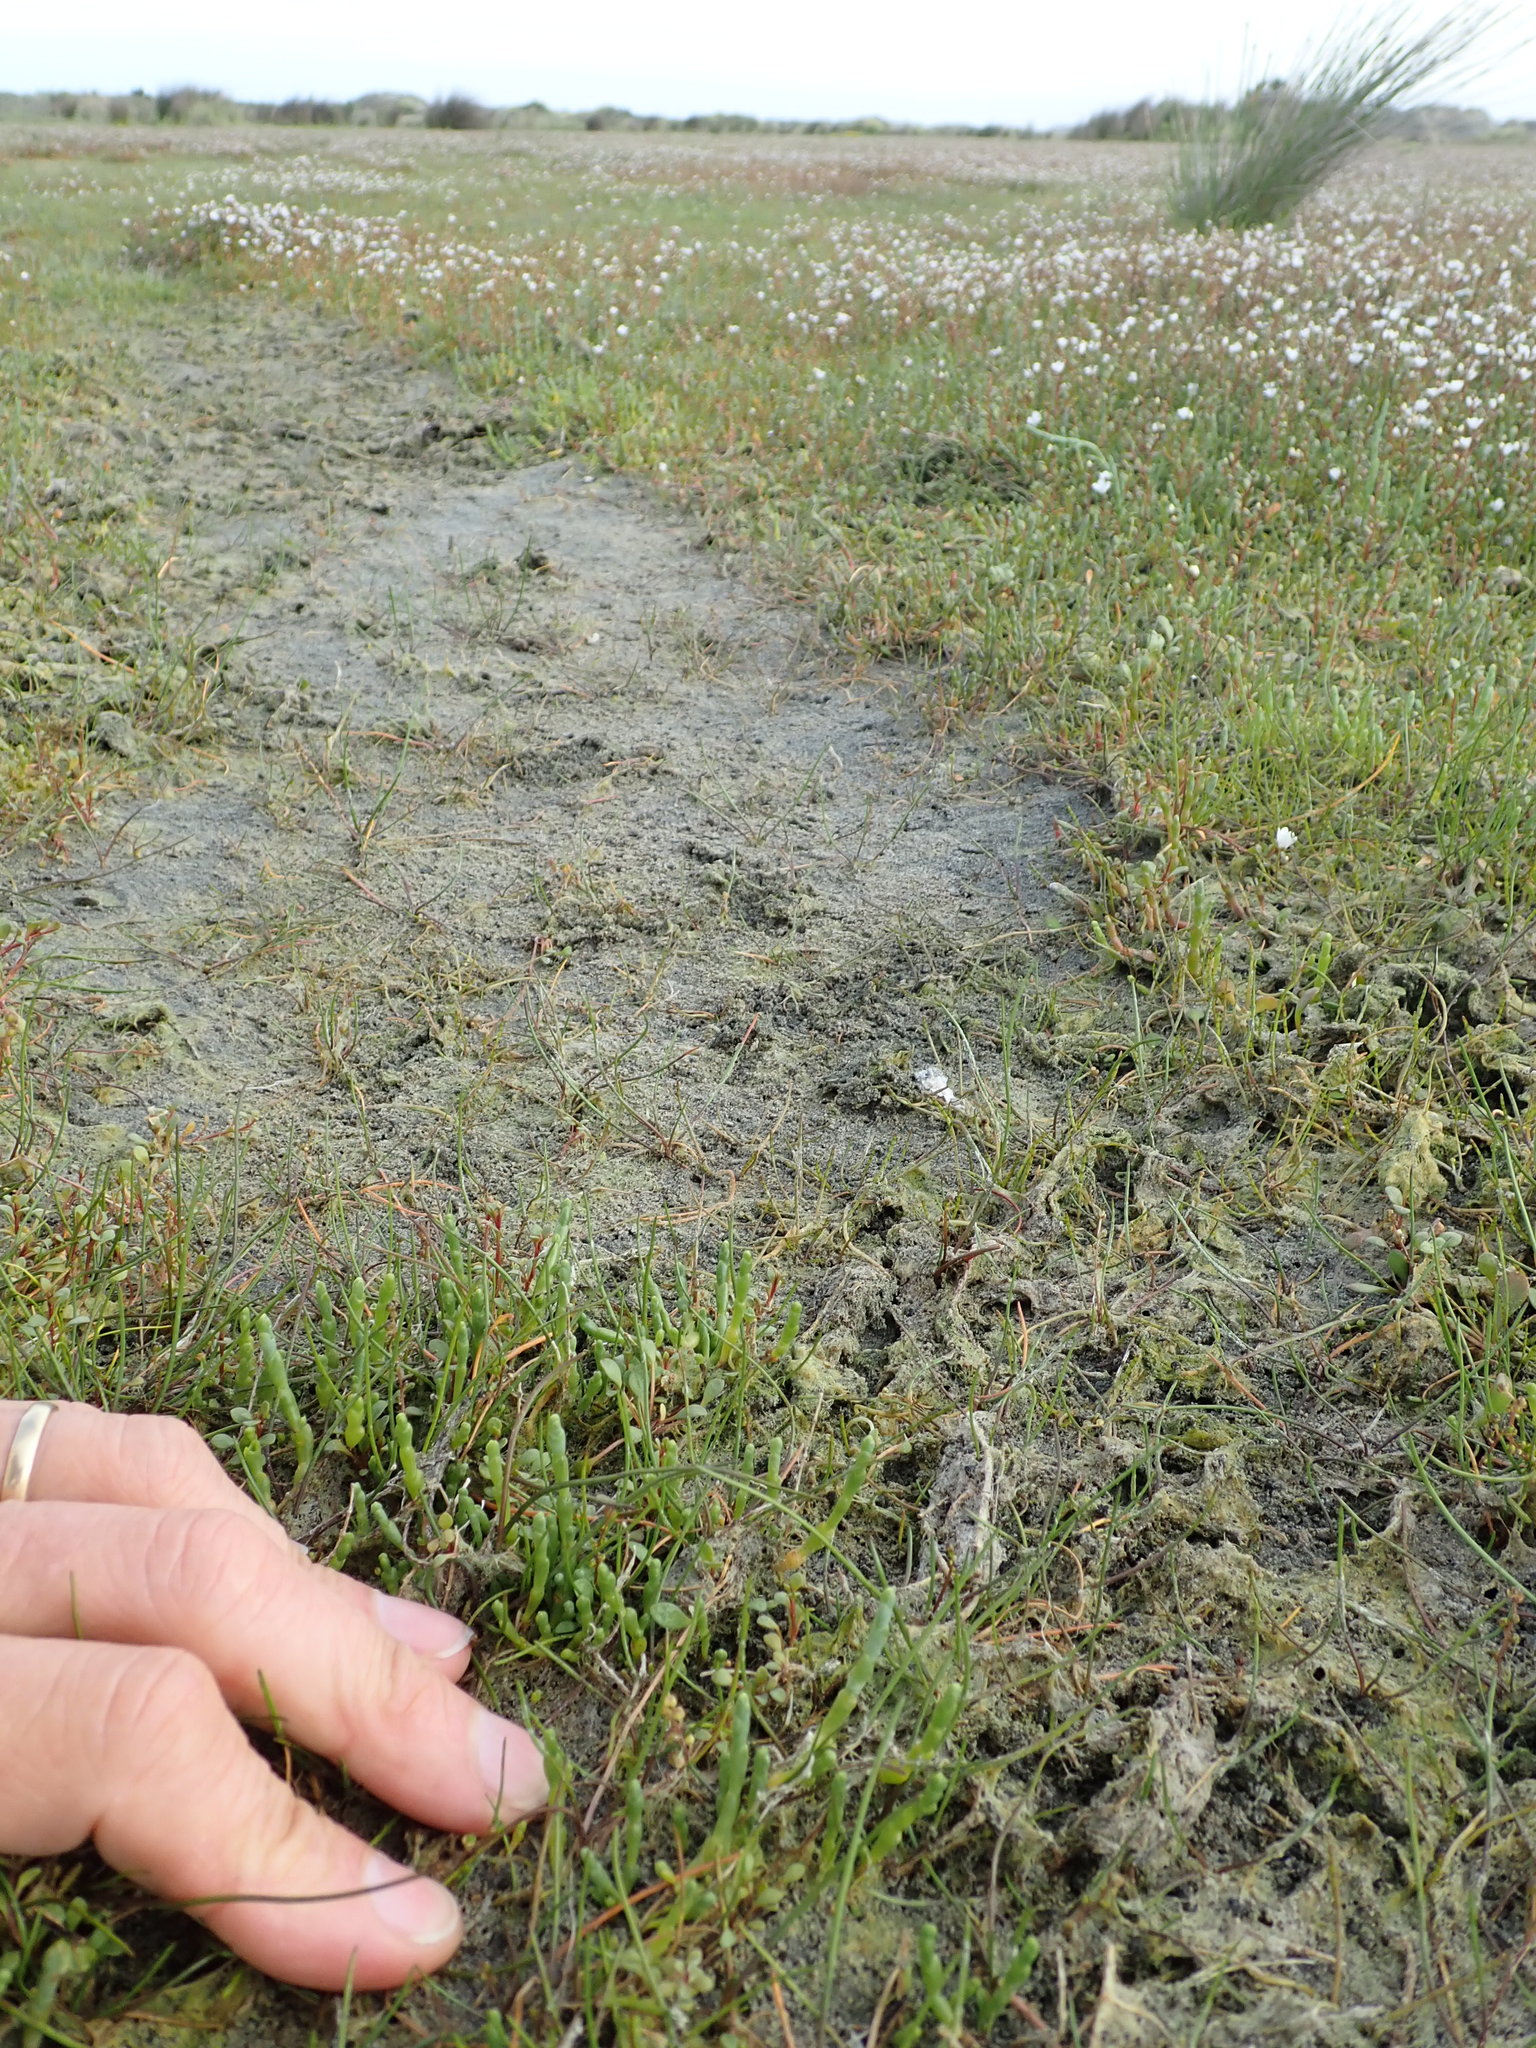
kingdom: Plantae
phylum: Tracheophyta
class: Magnoliopsida
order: Caryophyllales
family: Amaranthaceae
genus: Salicornia
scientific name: Salicornia quinqueflora
